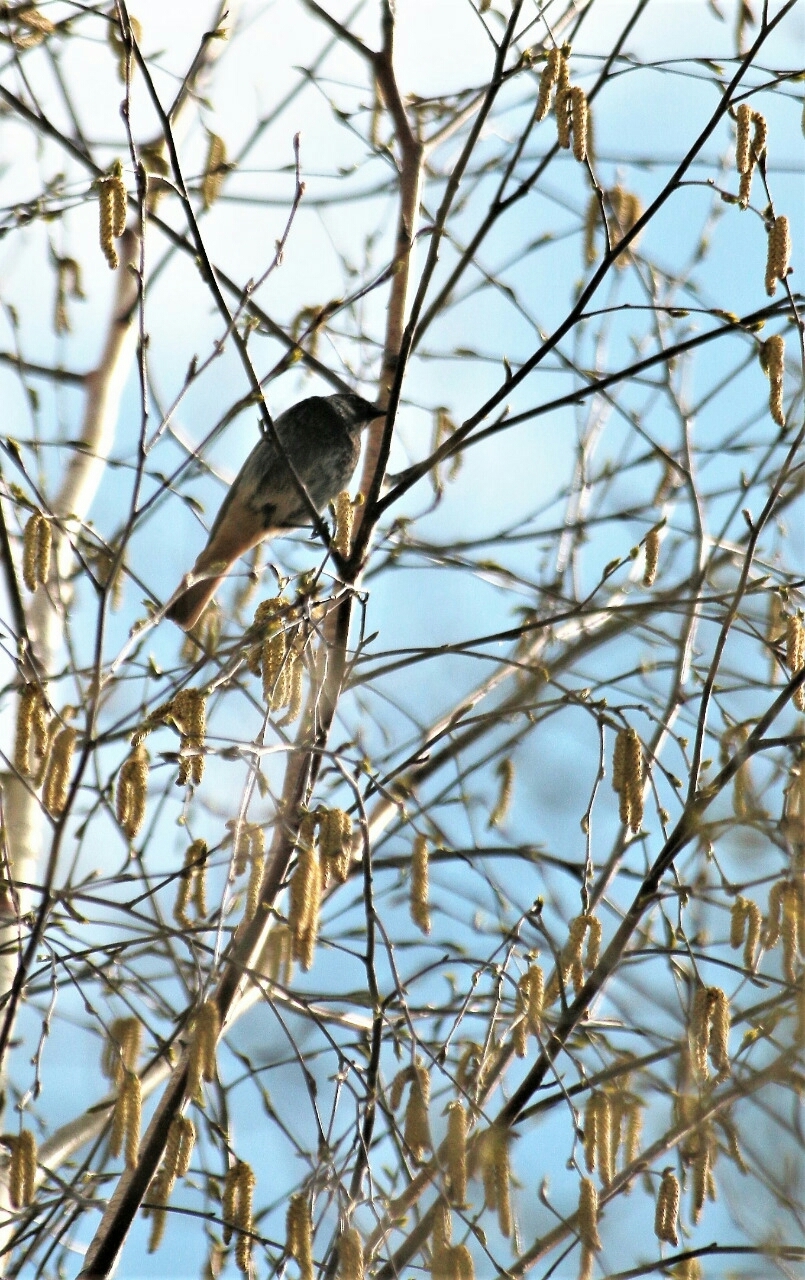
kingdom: Animalia
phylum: Chordata
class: Aves
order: Passeriformes
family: Muscicapidae
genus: Phoenicurus
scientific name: Phoenicurus ochruros
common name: Black redstart
